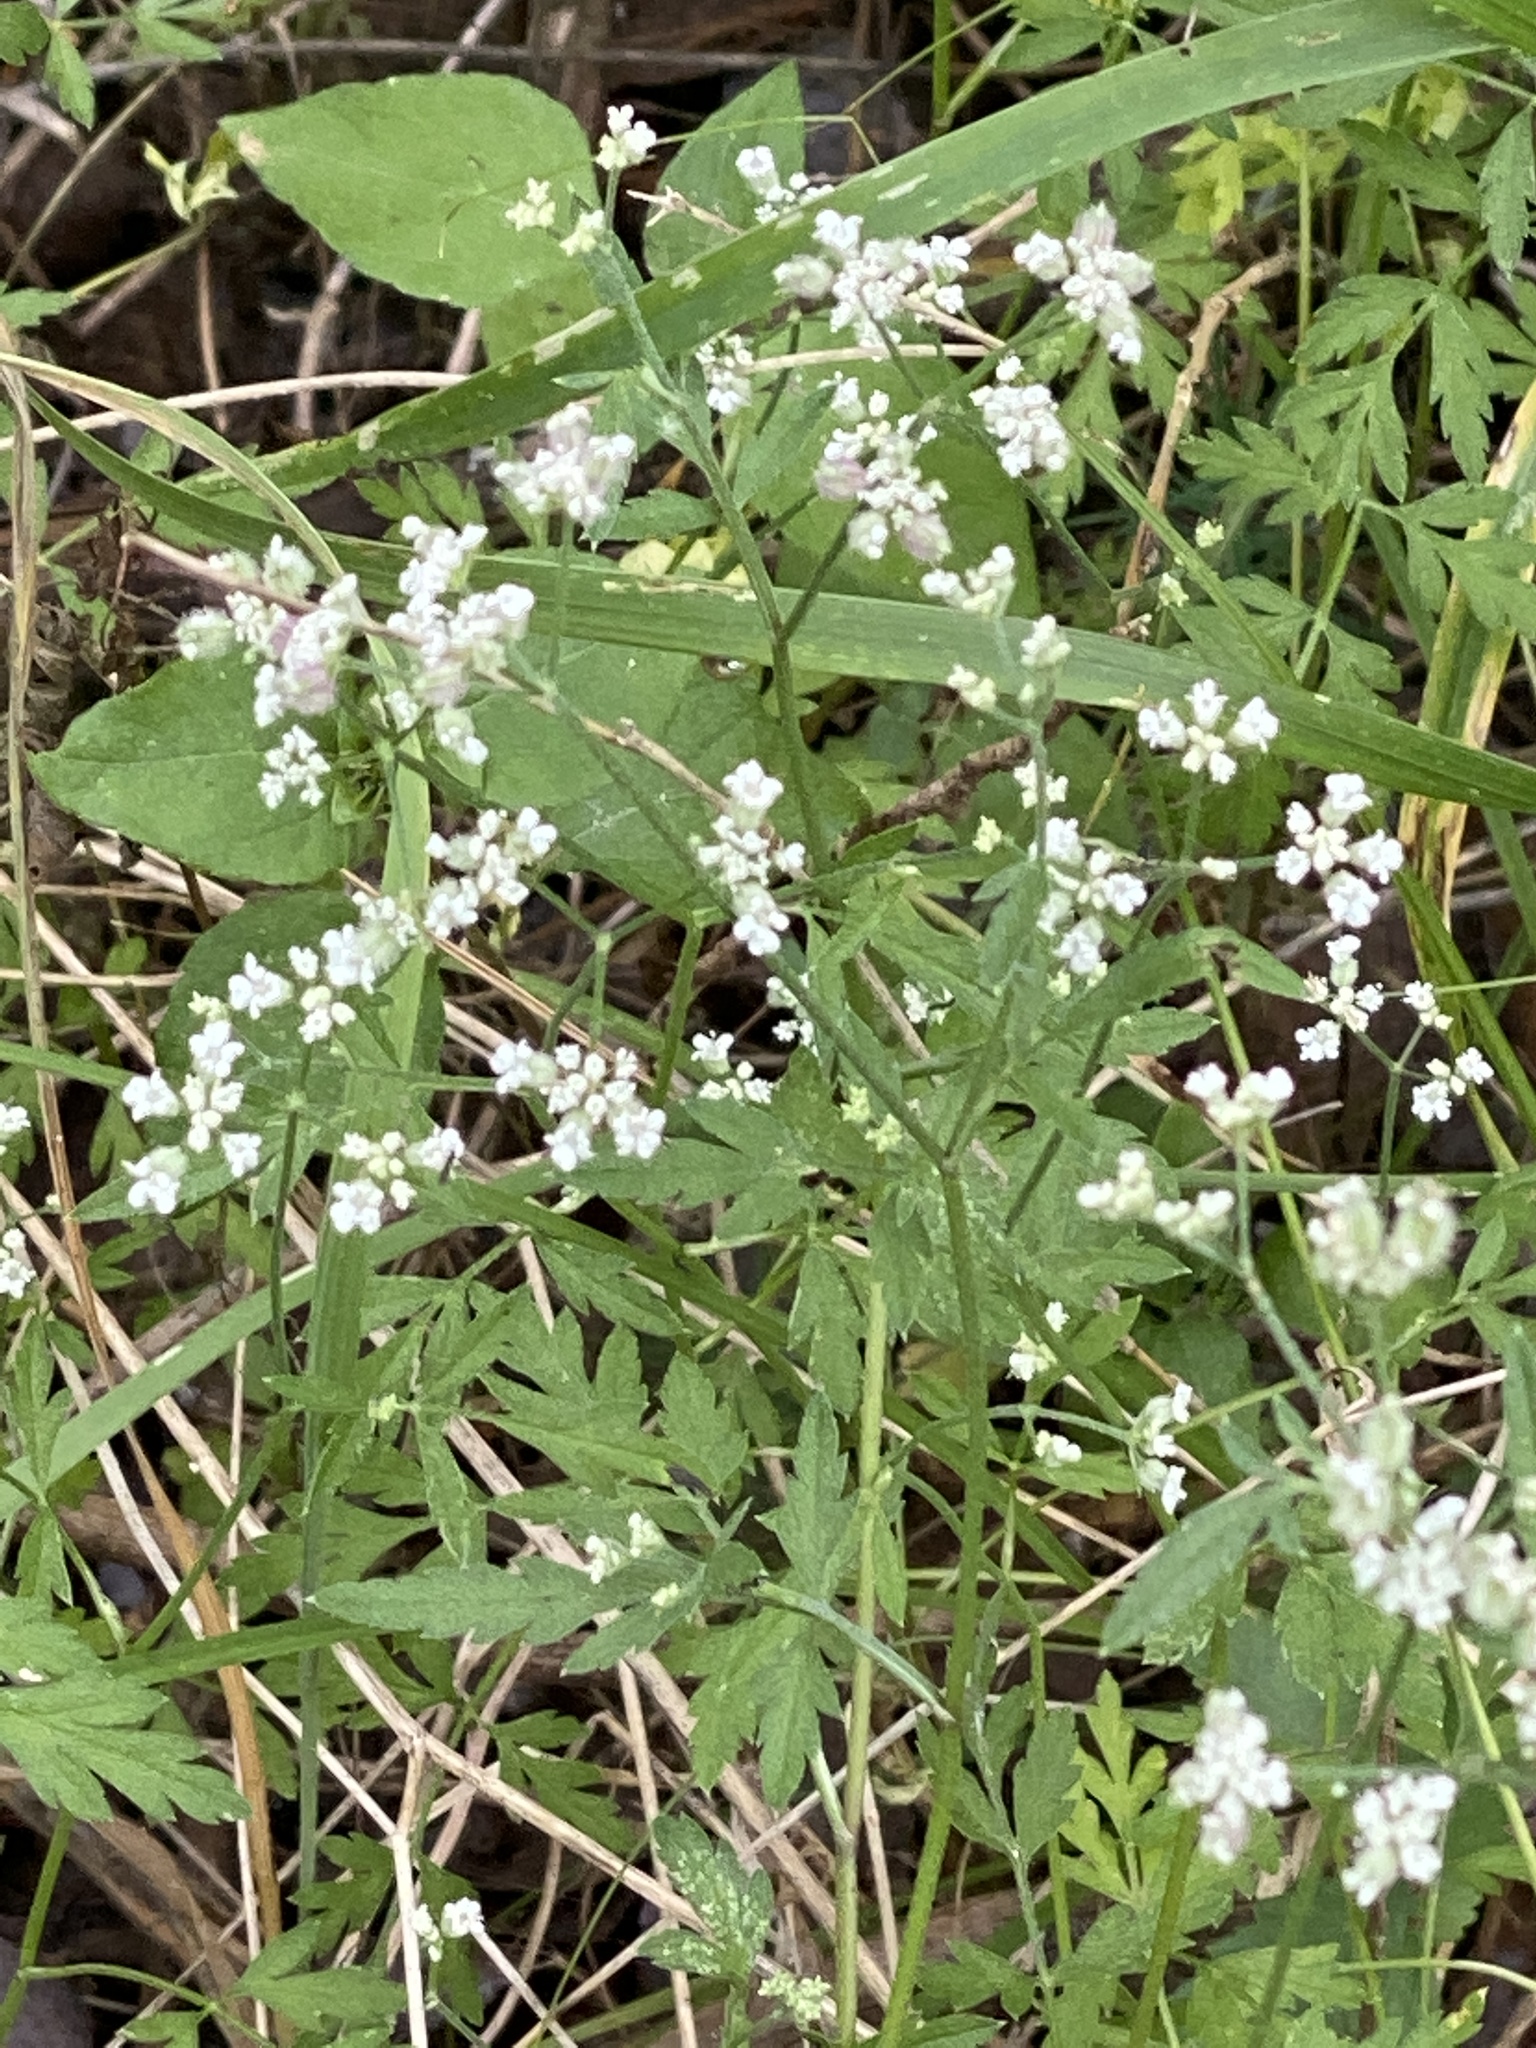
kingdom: Plantae
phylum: Tracheophyta
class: Magnoliopsida
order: Apiales
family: Apiaceae
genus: Torilis
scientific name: Torilis arvensis
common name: Spreading hedge-parsley
